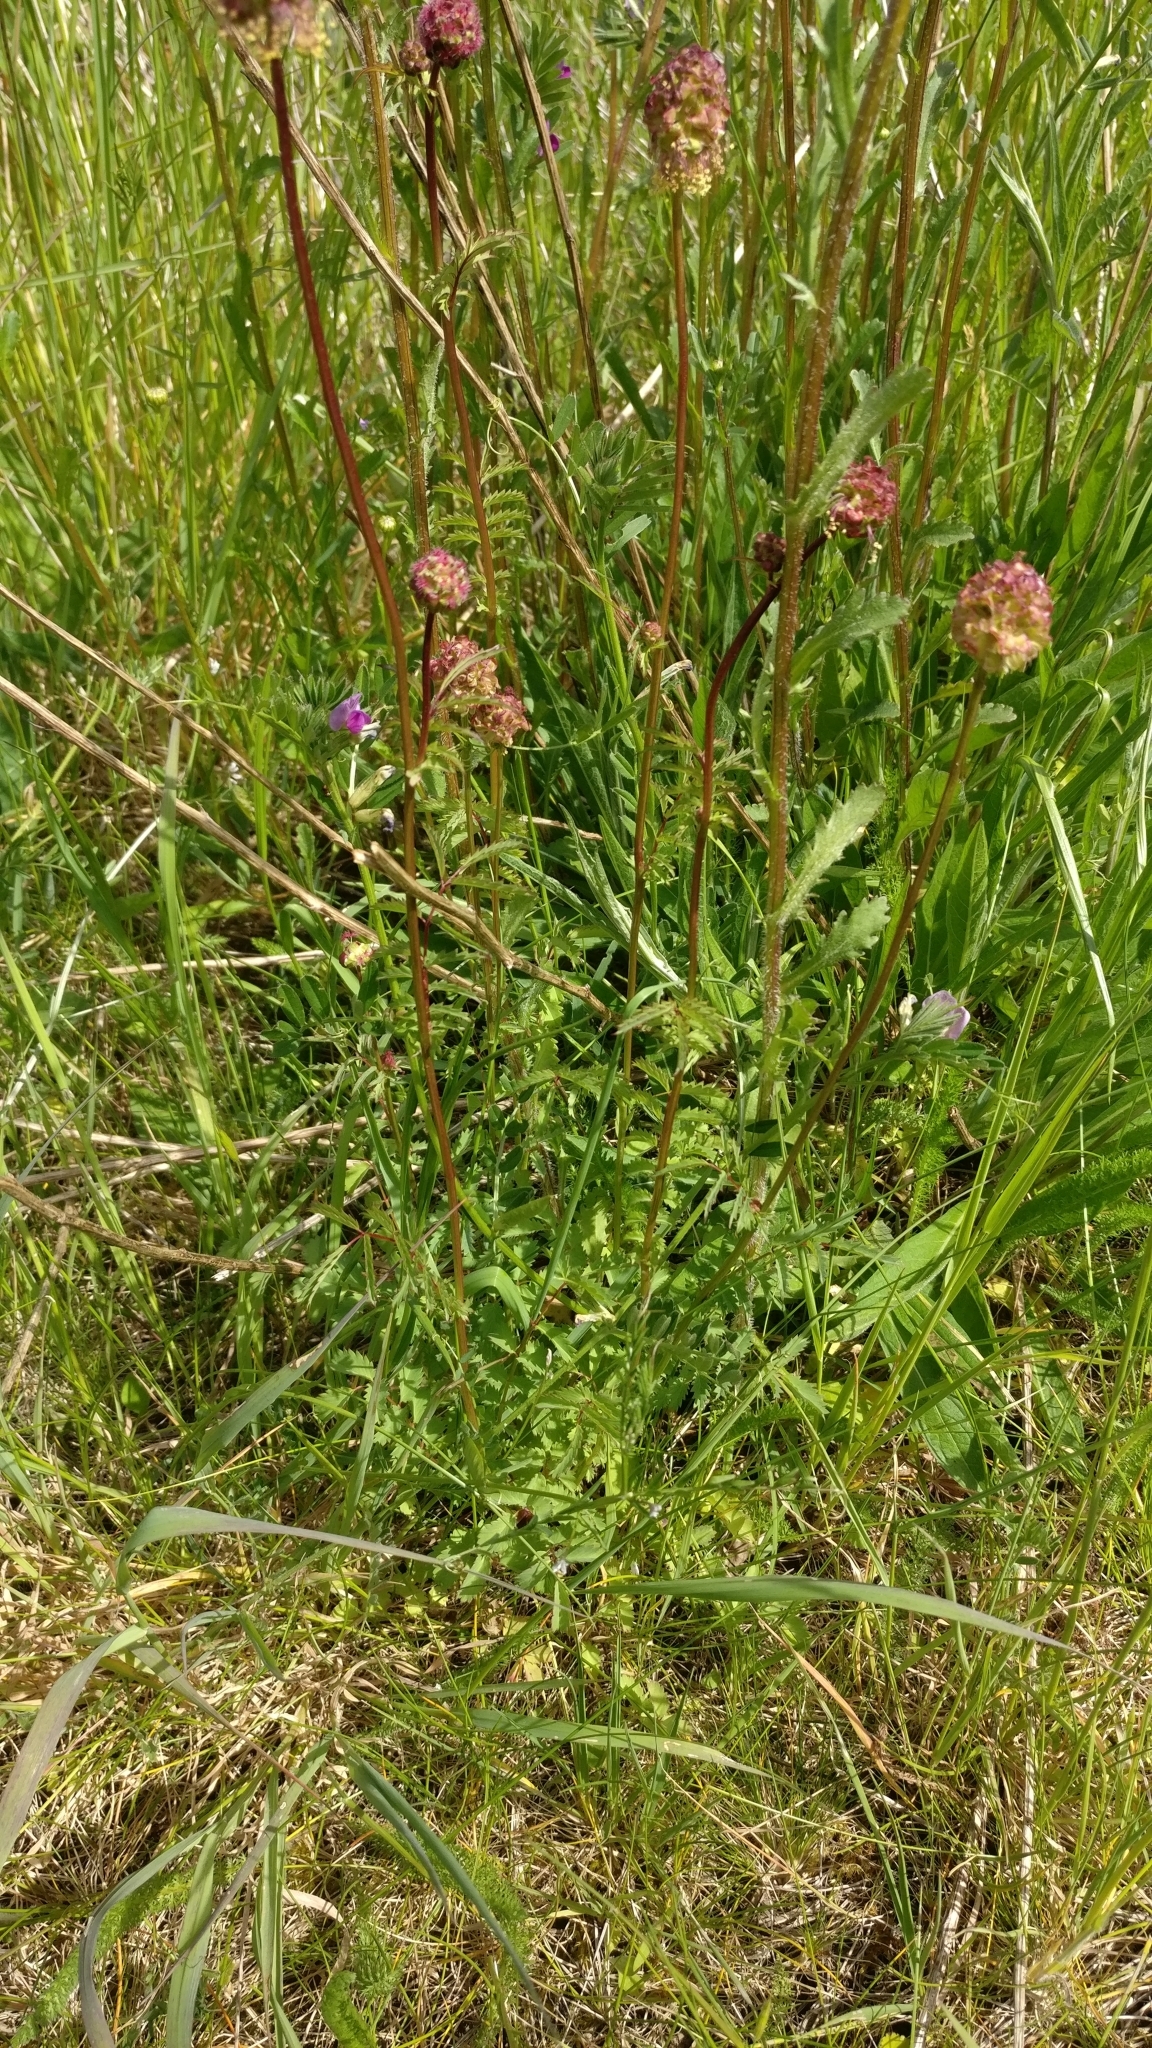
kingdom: Plantae
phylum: Tracheophyta
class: Magnoliopsida
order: Rosales
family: Rosaceae
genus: Poterium
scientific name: Poterium sanguisorba
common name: Salad burnet
